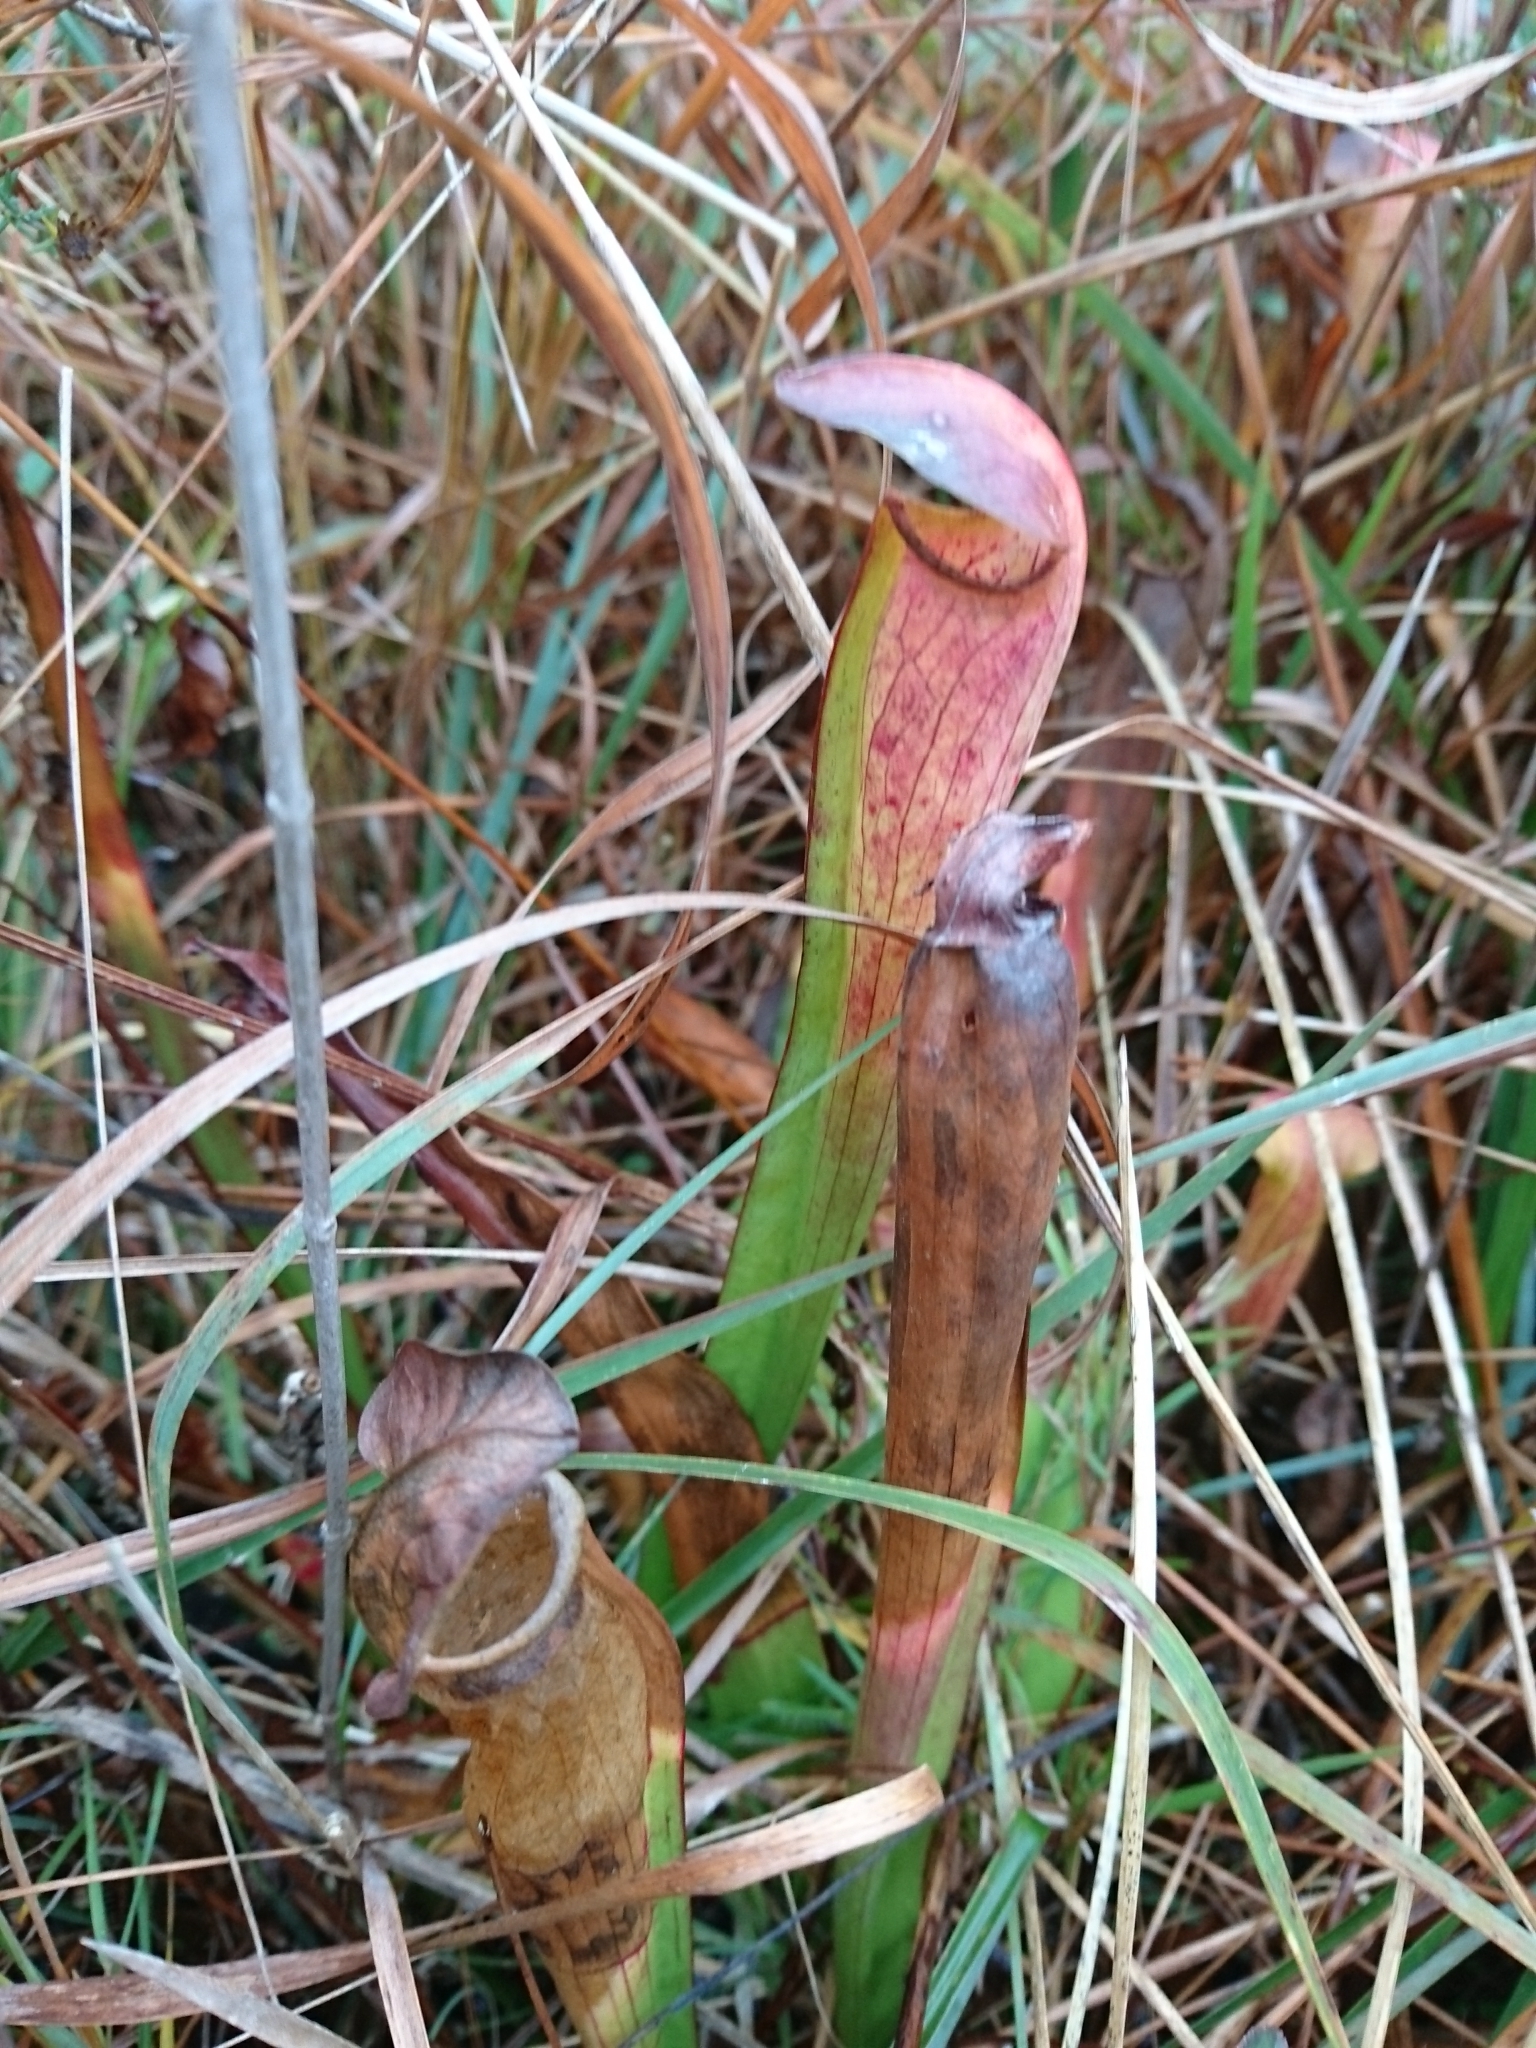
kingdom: Plantae
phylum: Tracheophyta
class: Magnoliopsida
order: Ericales
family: Sarraceniaceae
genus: Sarracenia
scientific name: Sarracenia alata
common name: Yellow trumpets
